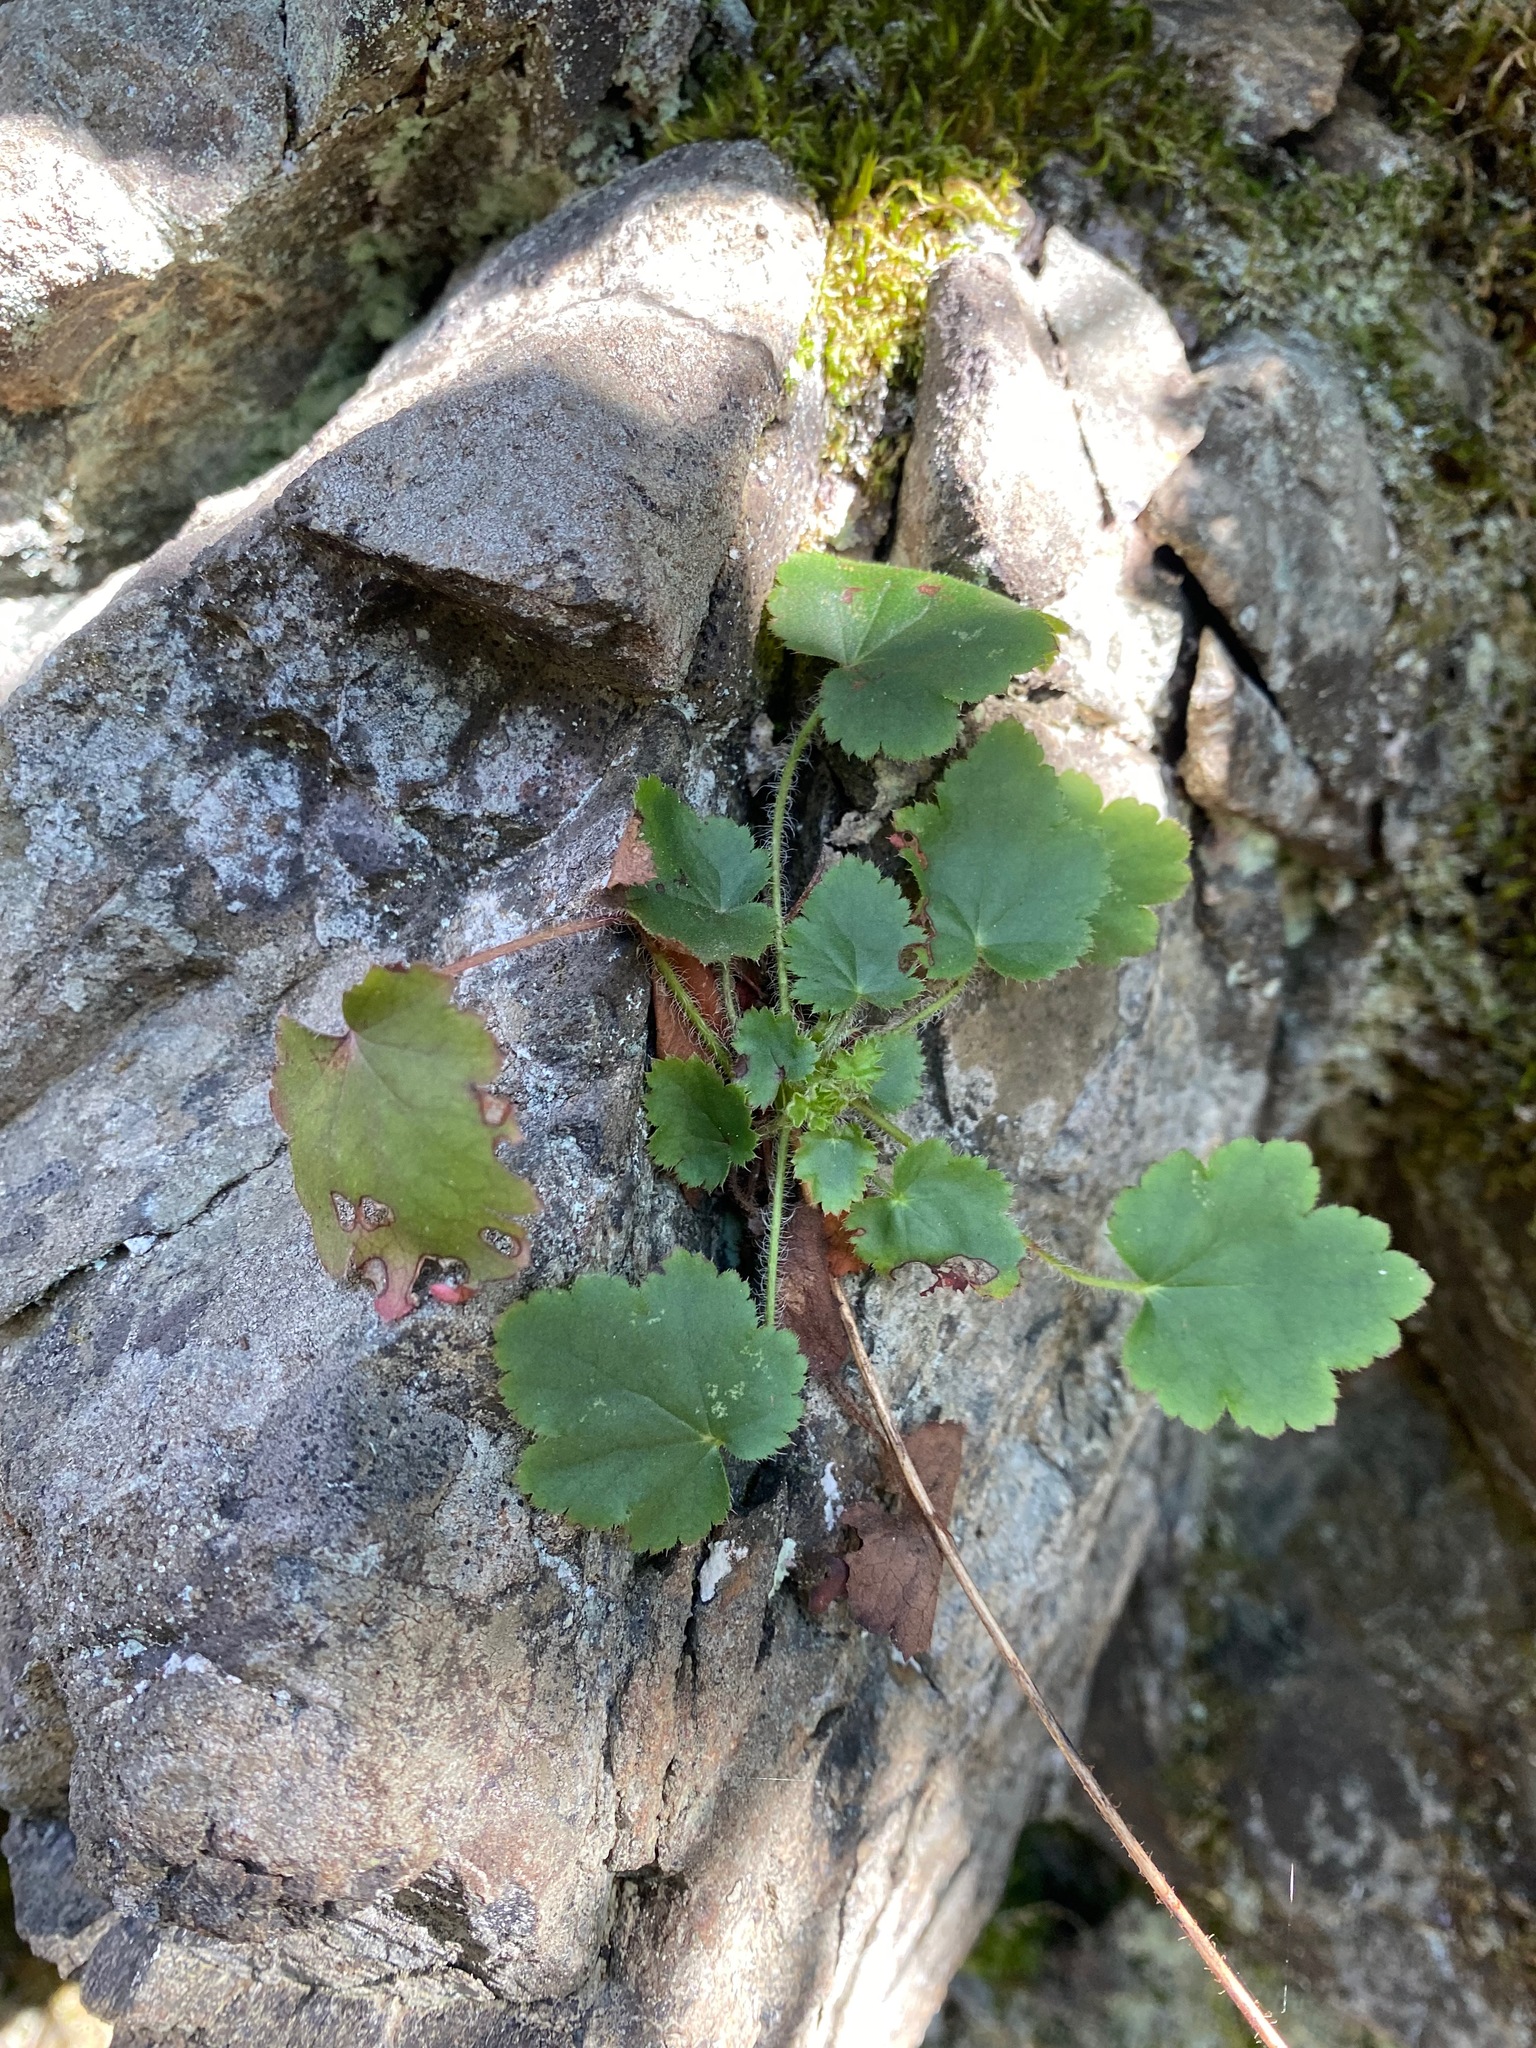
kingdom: Plantae
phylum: Tracheophyta
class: Magnoliopsida
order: Saxifragales
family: Saxifragaceae
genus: Heuchera
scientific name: Heuchera micrantha
